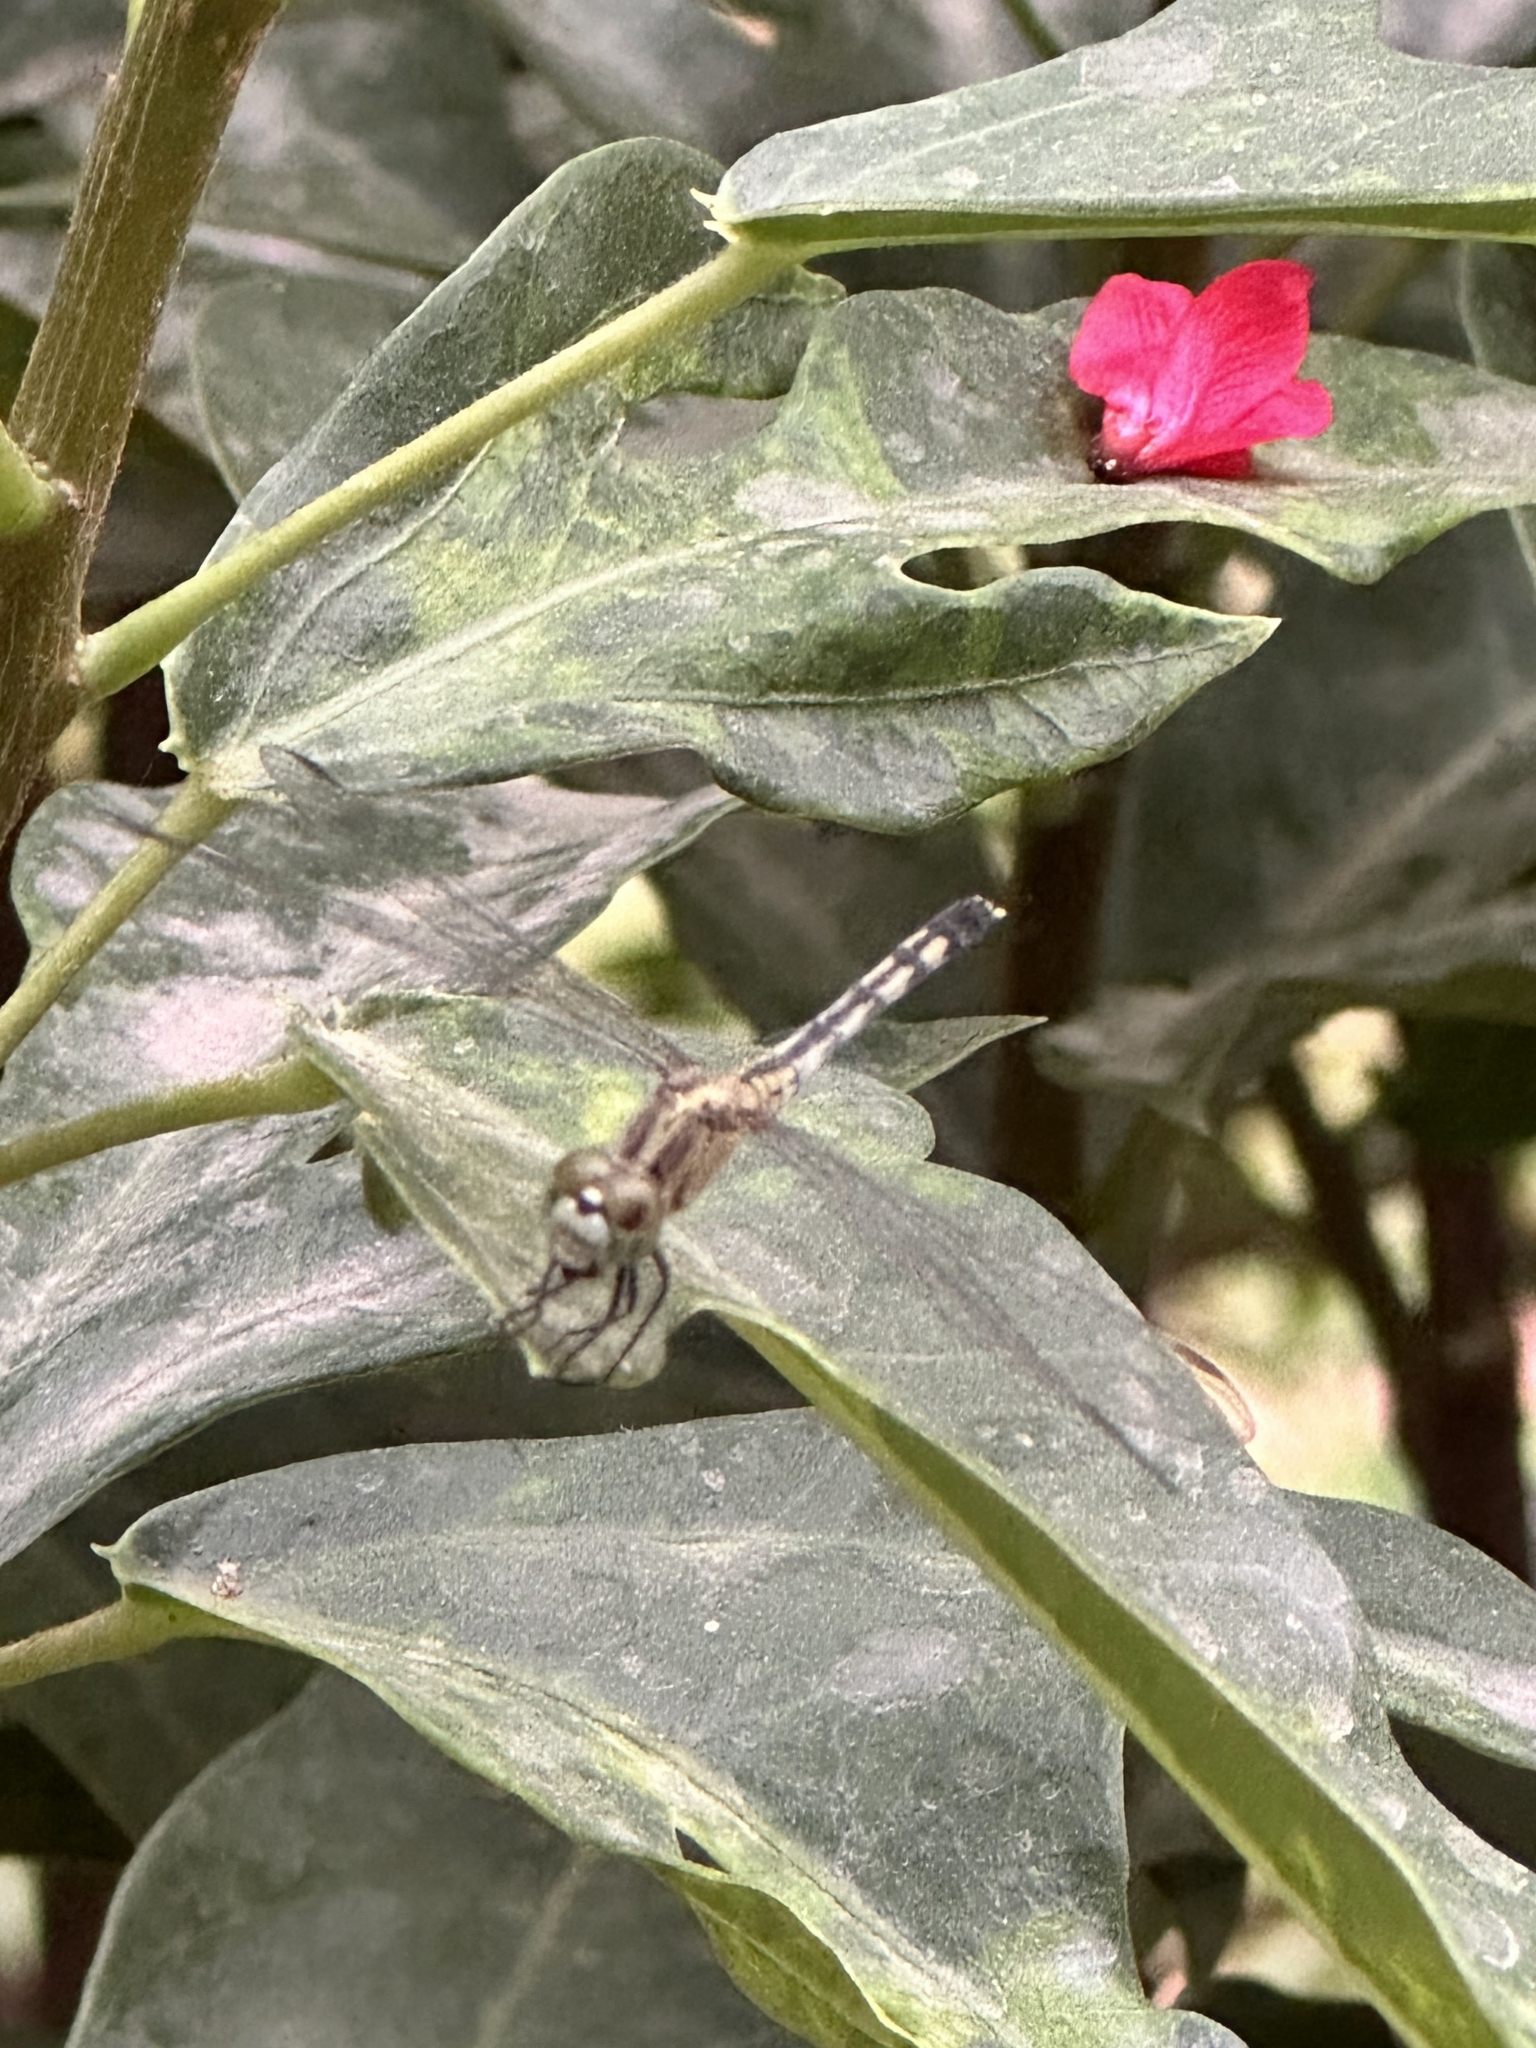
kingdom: Animalia
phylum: Arthropoda
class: Insecta
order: Odonata
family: Libellulidae
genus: Diplacodes
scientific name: Diplacodes trivialis
